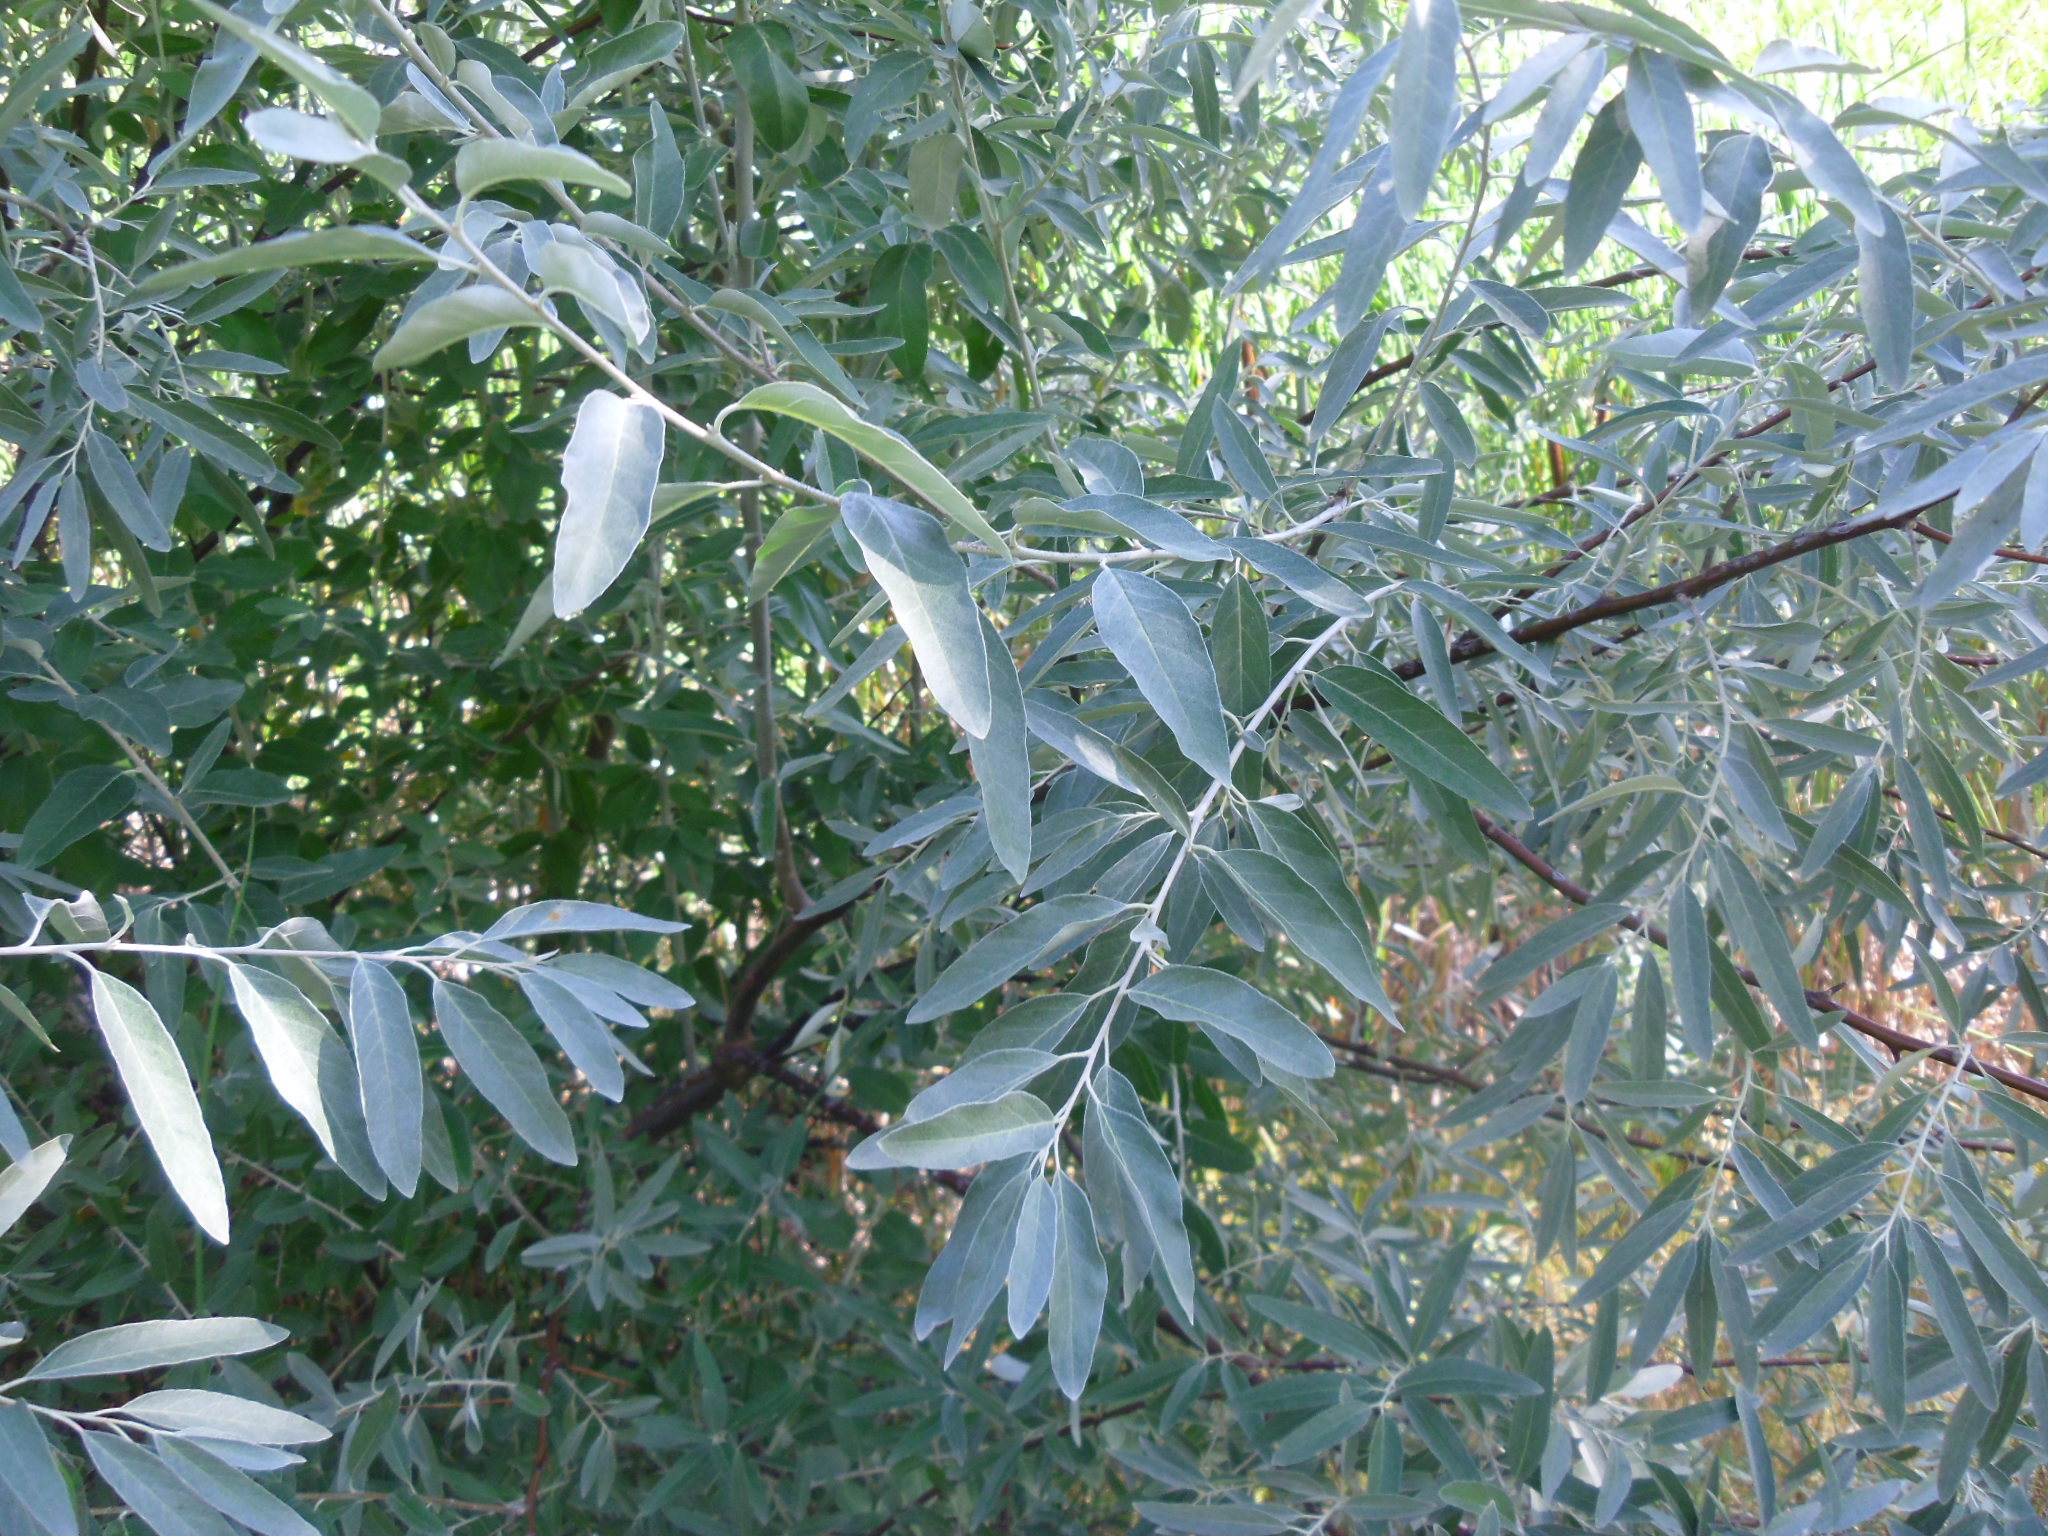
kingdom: Plantae
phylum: Tracheophyta
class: Magnoliopsida
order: Rosales
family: Elaeagnaceae
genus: Elaeagnus
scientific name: Elaeagnus angustifolia
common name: Russian olive
